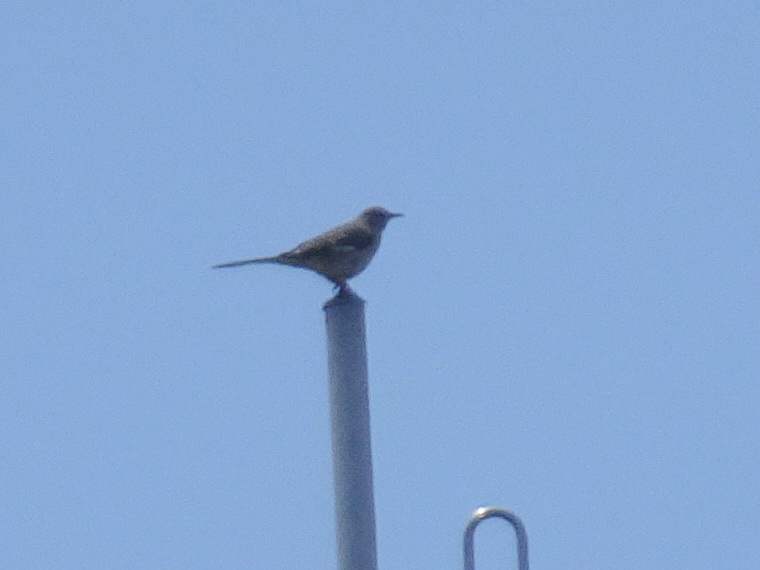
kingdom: Animalia
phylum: Chordata
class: Aves
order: Passeriformes
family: Mimidae
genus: Mimus
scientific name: Mimus polyglottos
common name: Northern mockingbird
